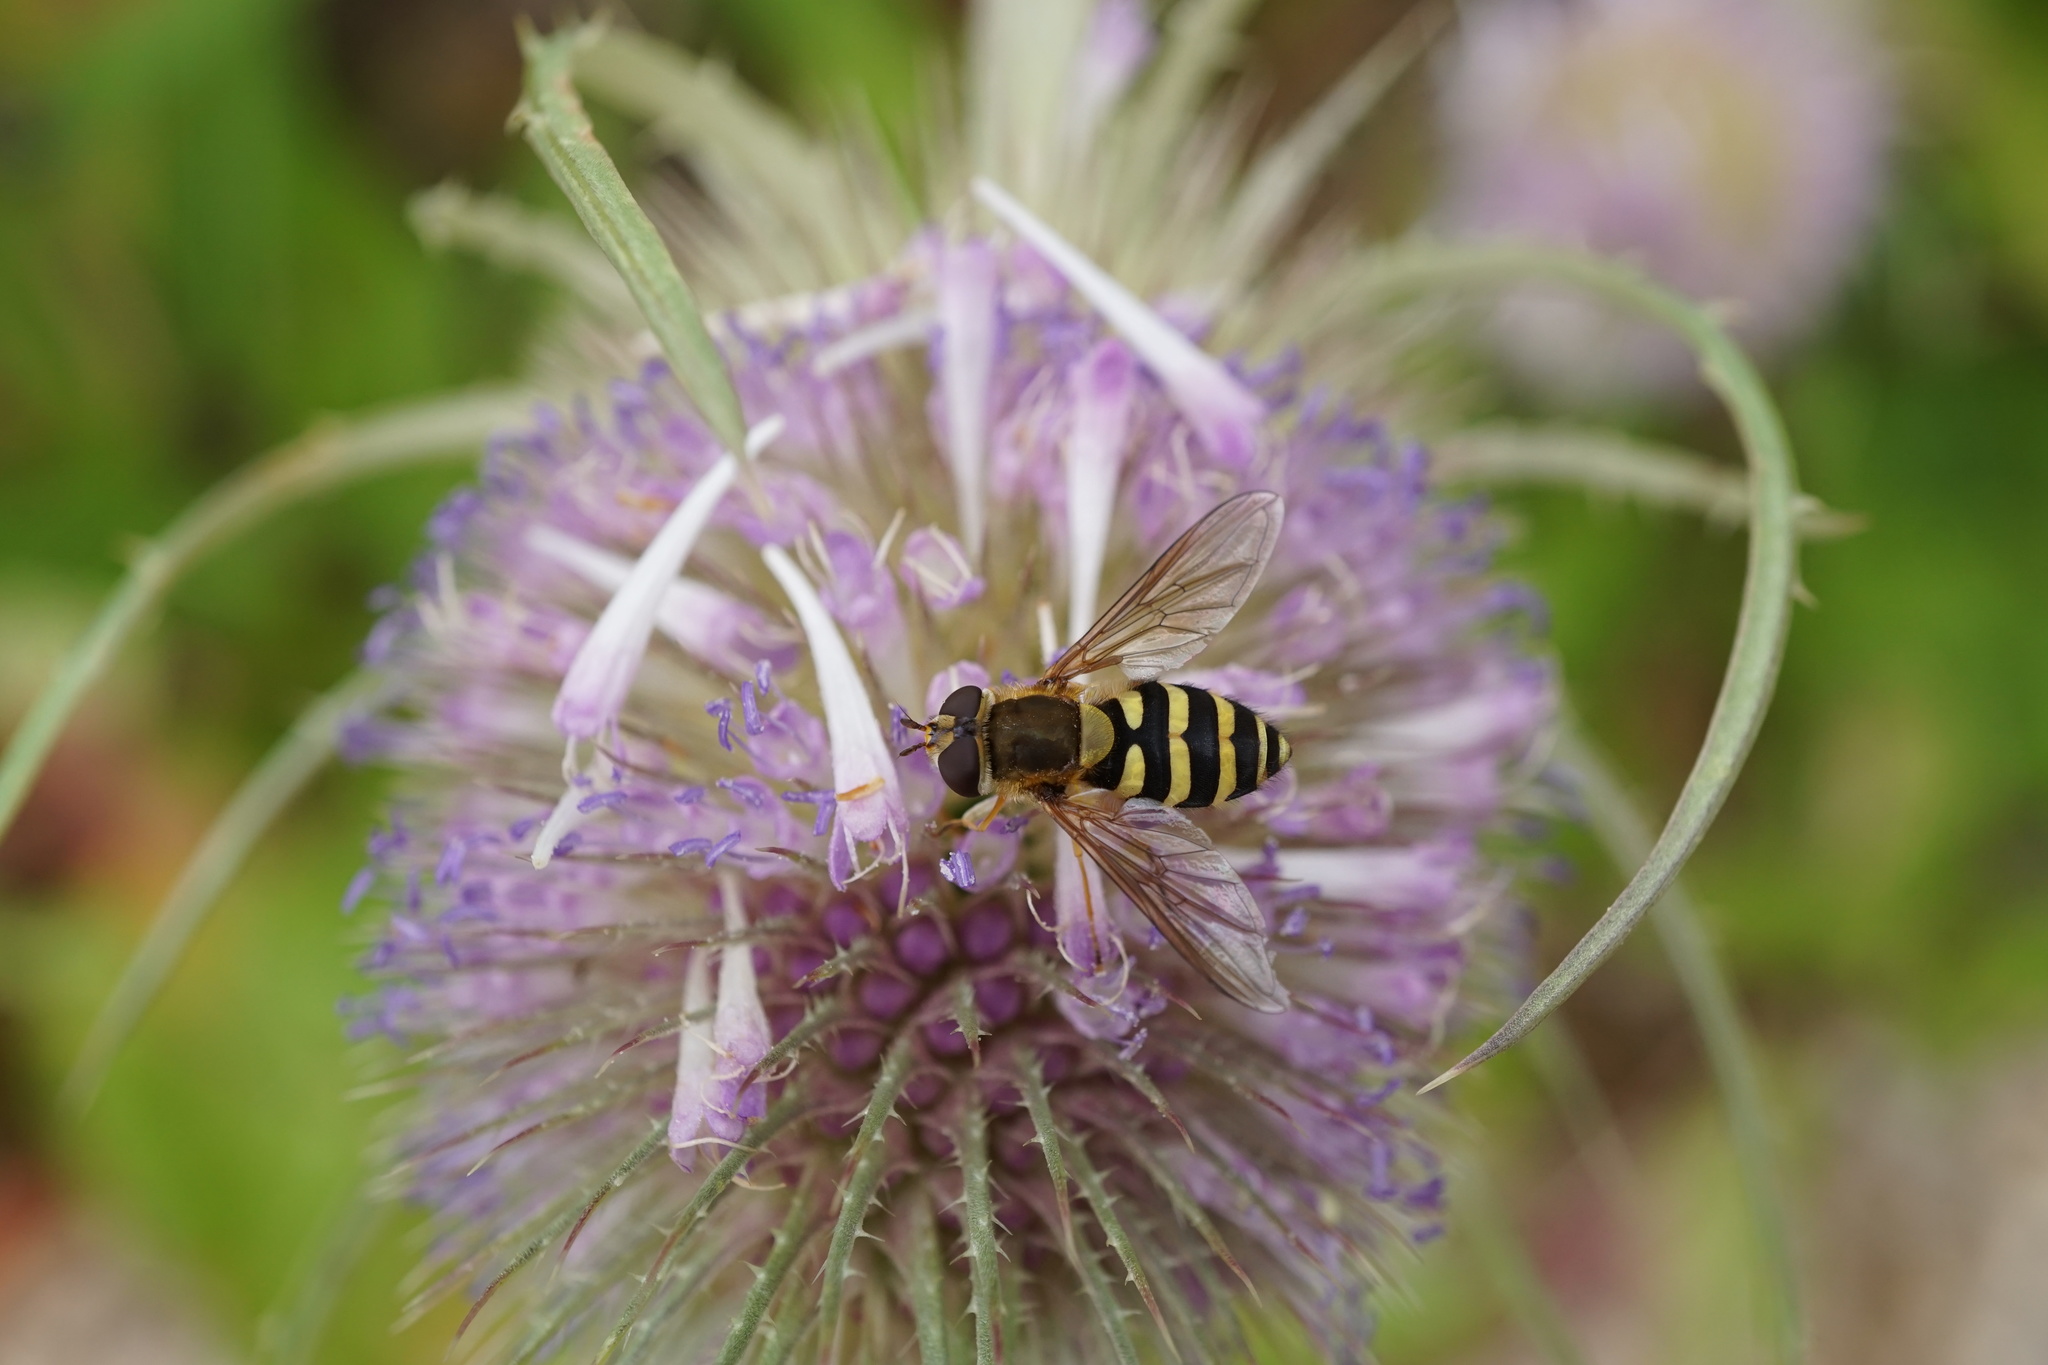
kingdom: Animalia
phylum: Arthropoda
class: Insecta
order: Diptera
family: Syrphidae
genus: Syrphus
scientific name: Syrphus
